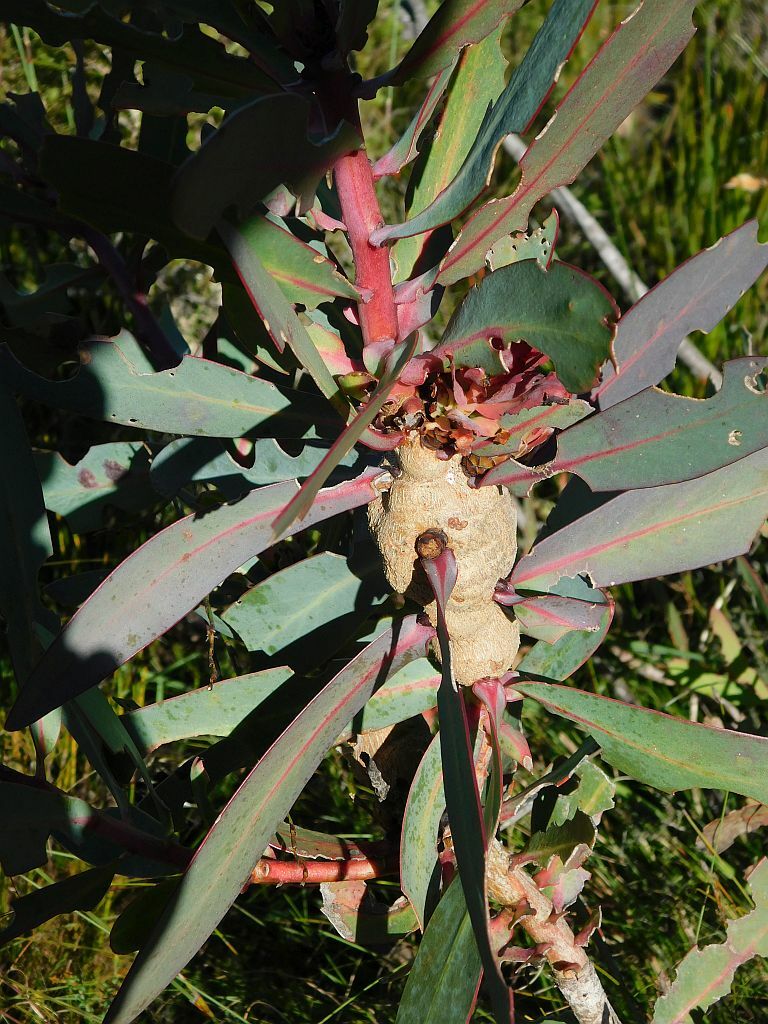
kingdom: Animalia
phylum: Arthropoda
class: Insecta
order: Coleoptera
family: Brentidae
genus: Afrotibicina
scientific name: Afrotibicina
